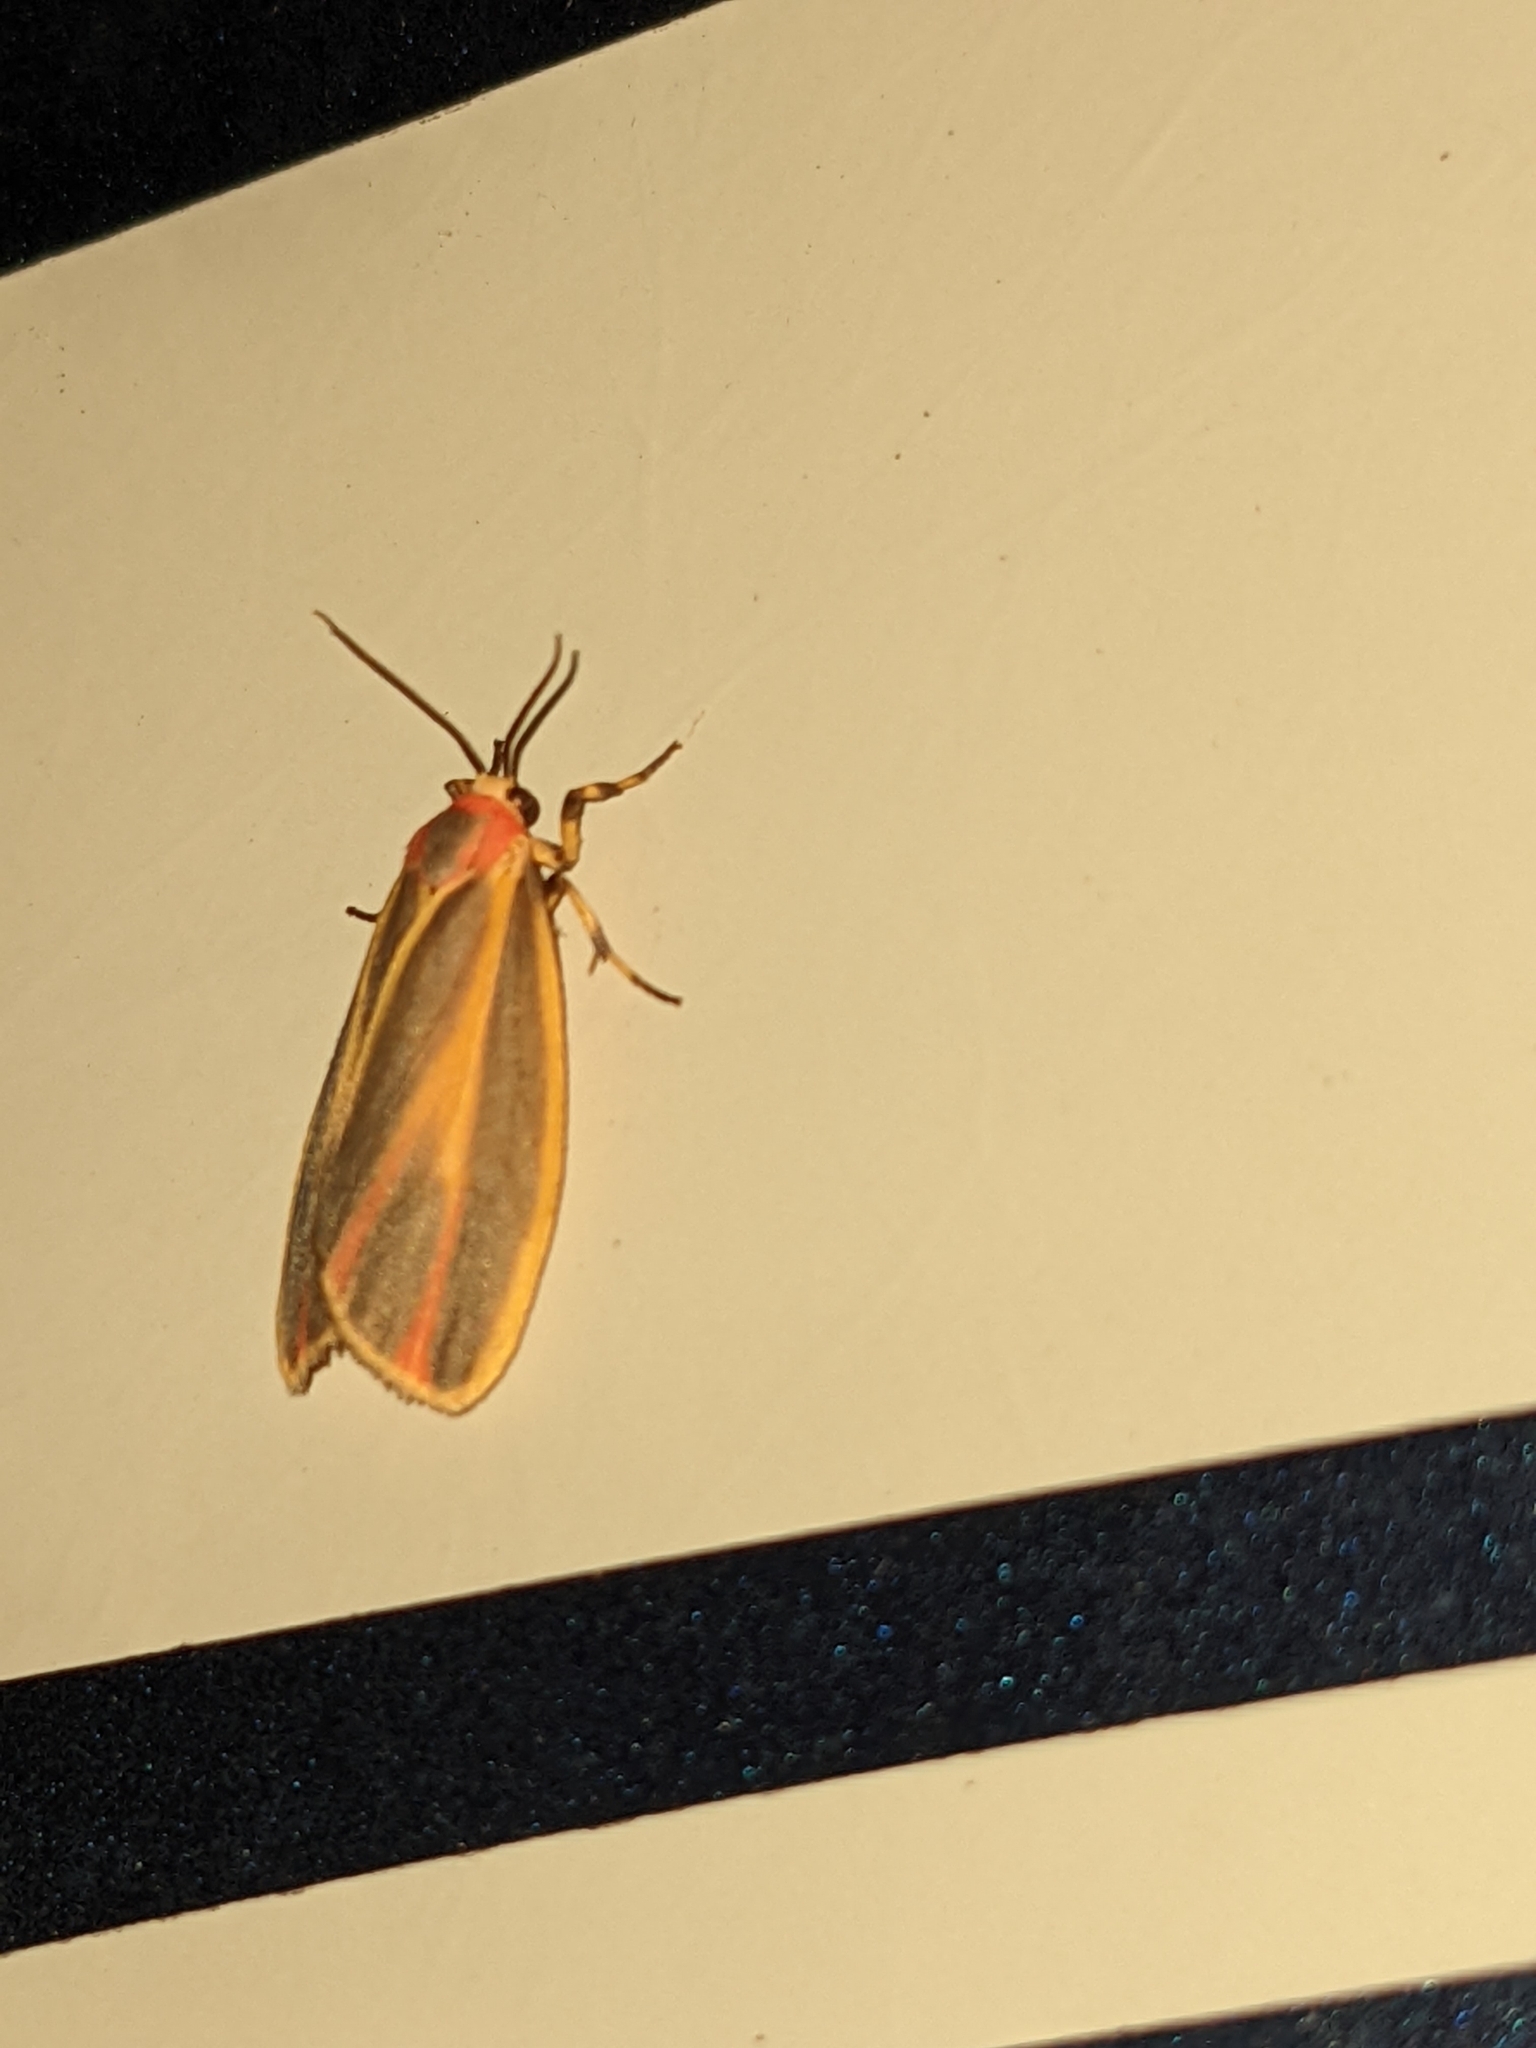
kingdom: Animalia
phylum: Arthropoda
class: Insecta
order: Lepidoptera
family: Erebidae
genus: Hypoprepia
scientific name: Hypoprepia fucosa
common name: Painted lichen moth
